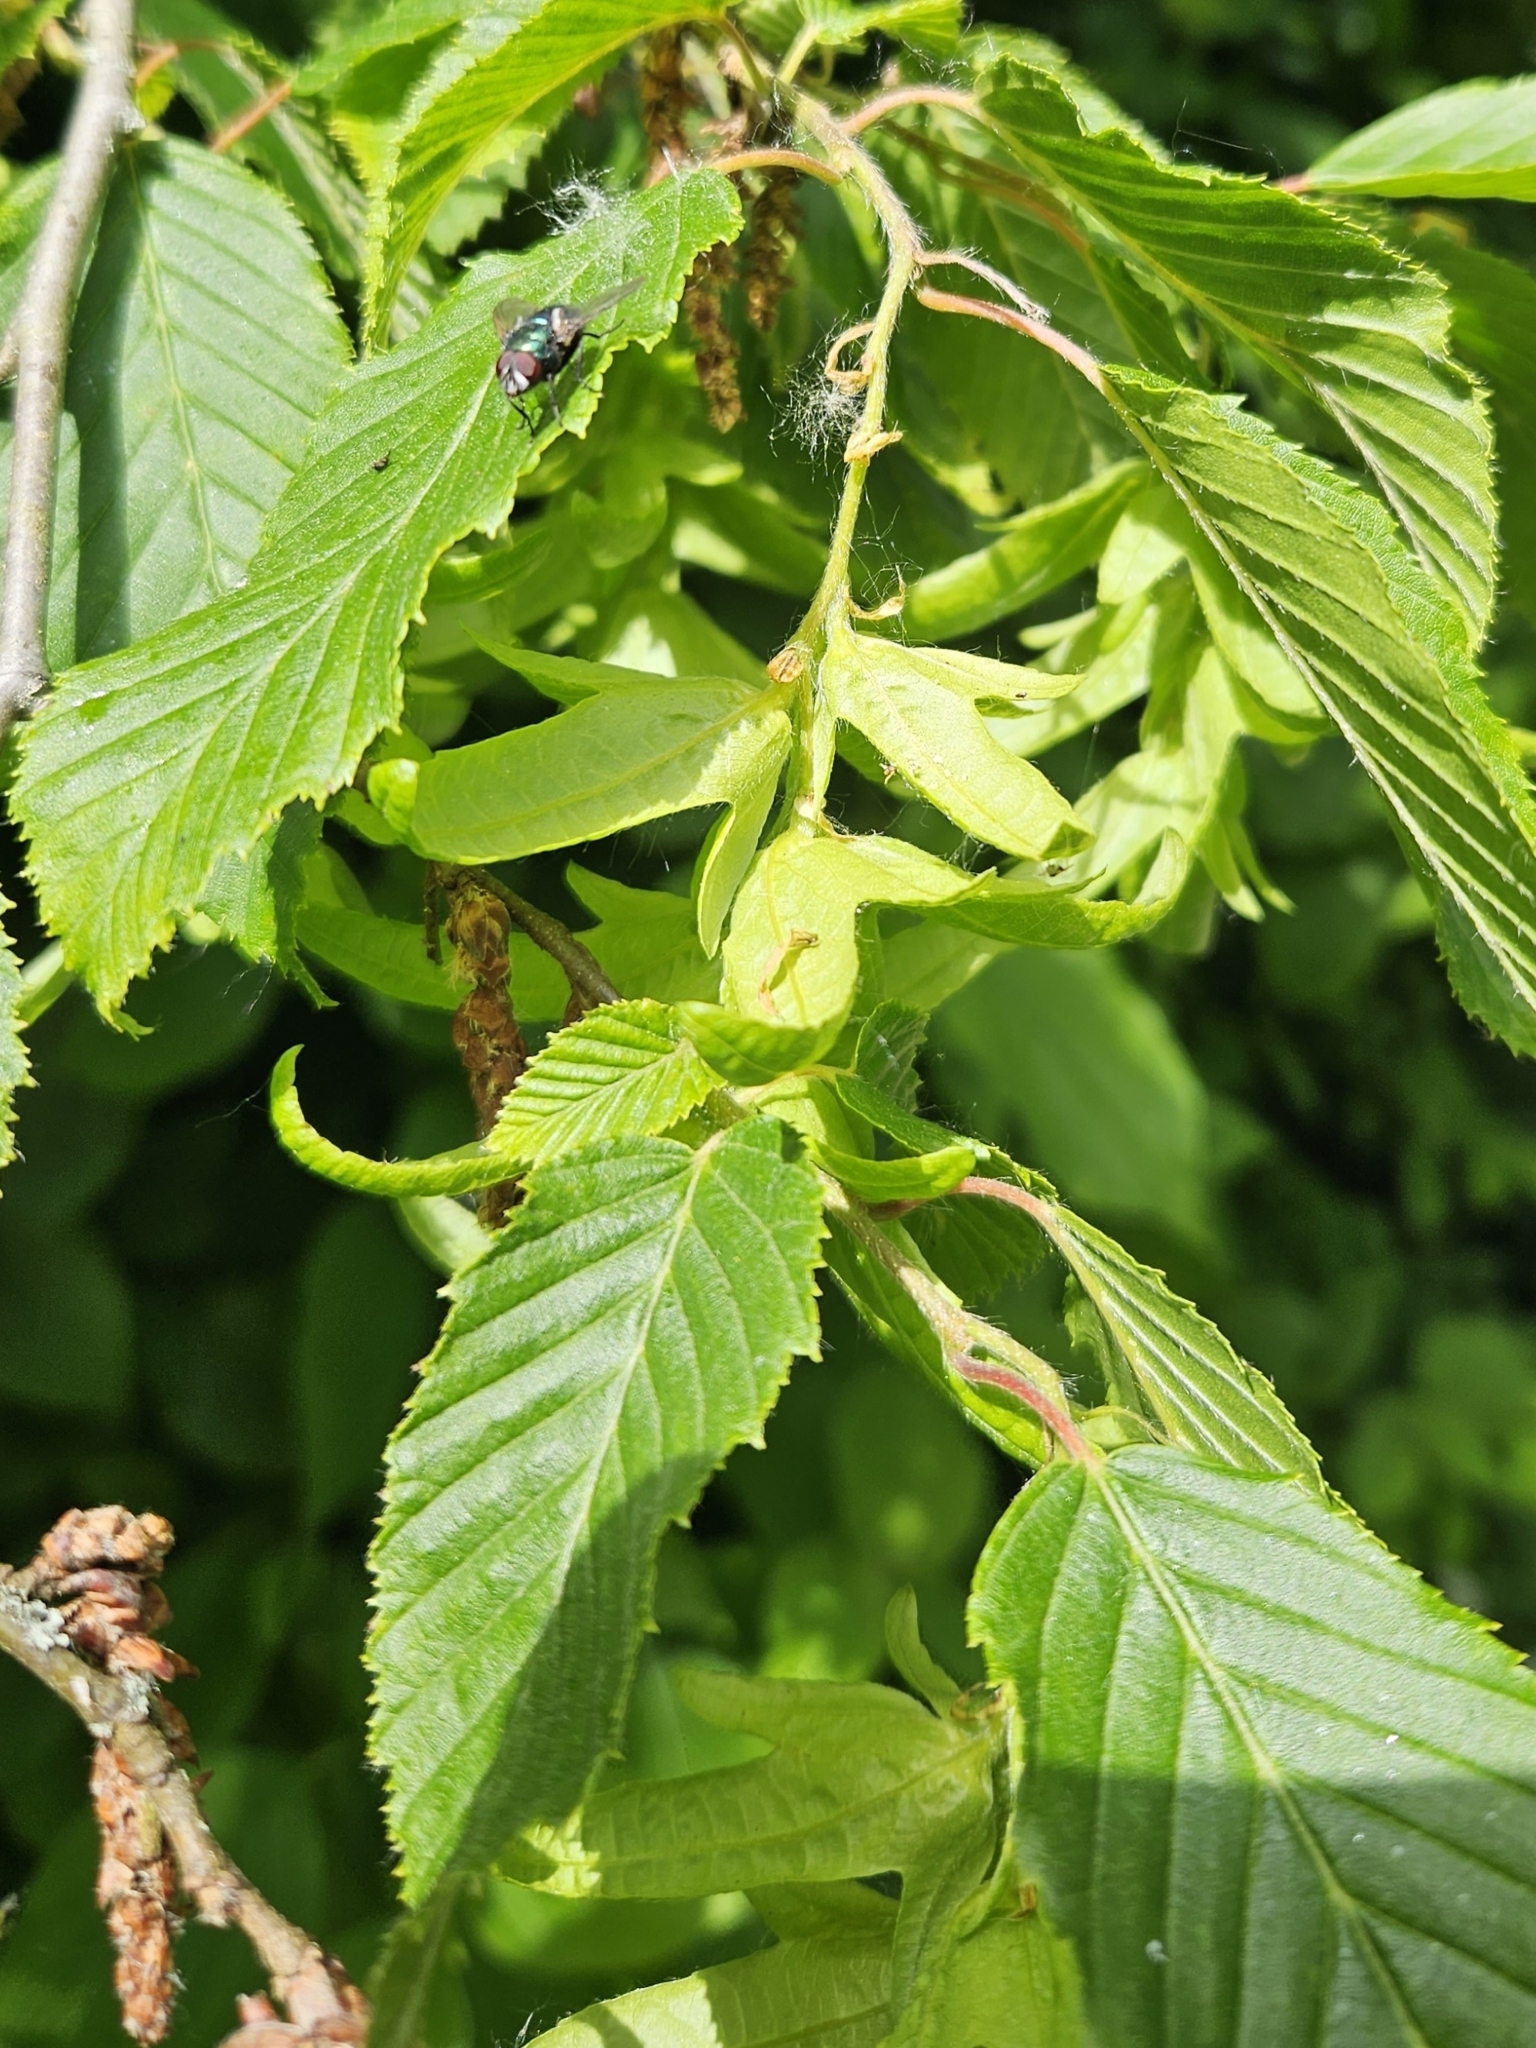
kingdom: Plantae
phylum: Tracheophyta
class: Magnoliopsida
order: Fagales
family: Betulaceae
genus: Carpinus
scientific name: Carpinus betulus
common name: Hornbeam
